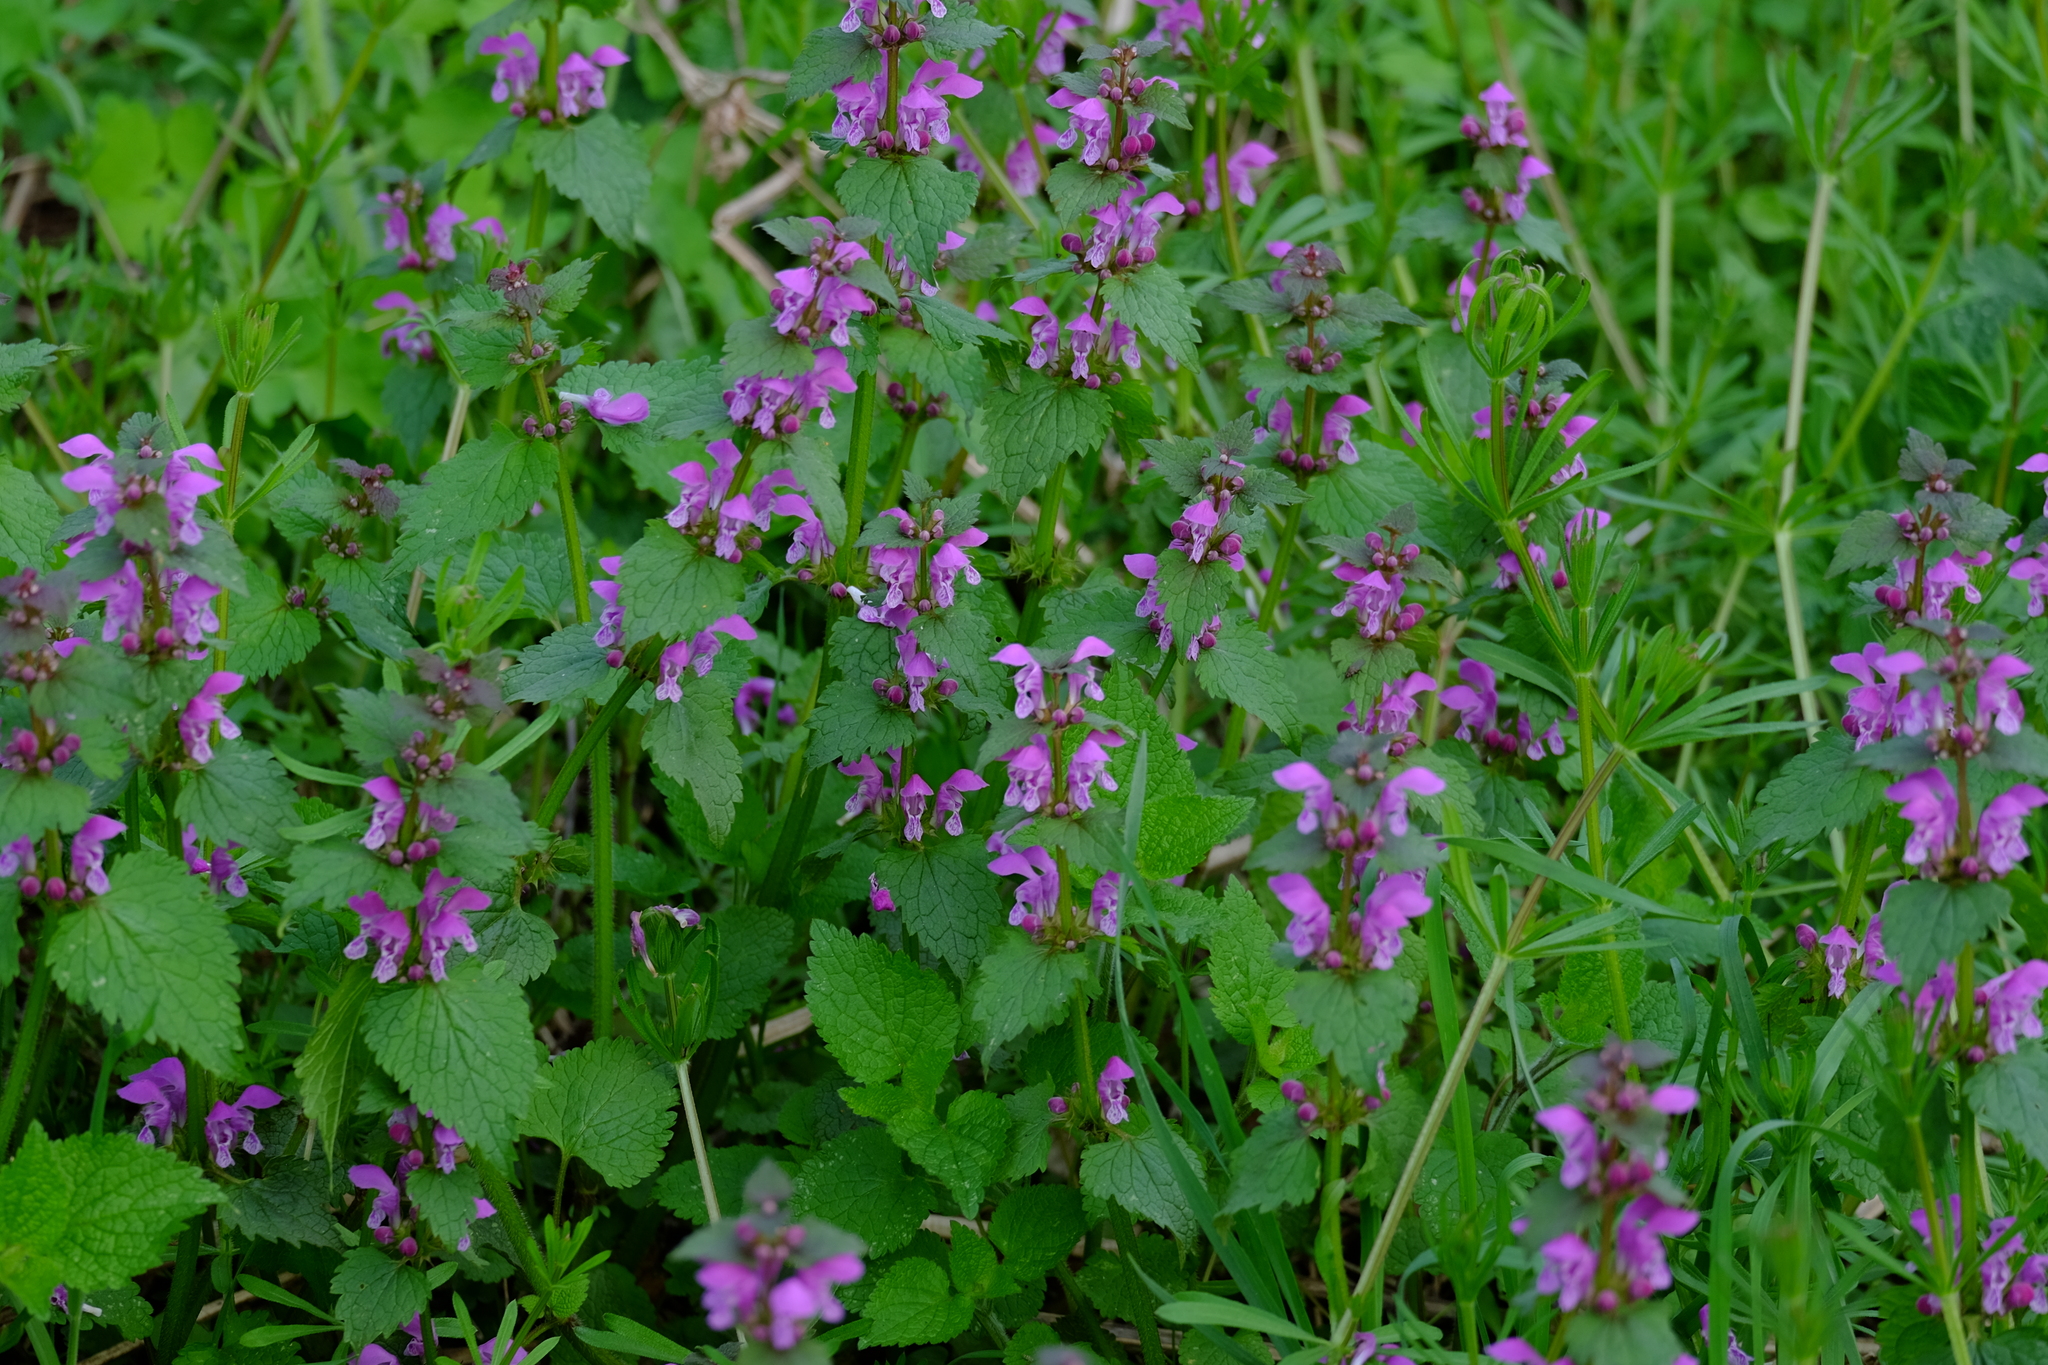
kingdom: Plantae
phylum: Tracheophyta
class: Magnoliopsida
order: Lamiales
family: Lamiaceae
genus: Lamium
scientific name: Lamium maculatum
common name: Spotted dead-nettle
